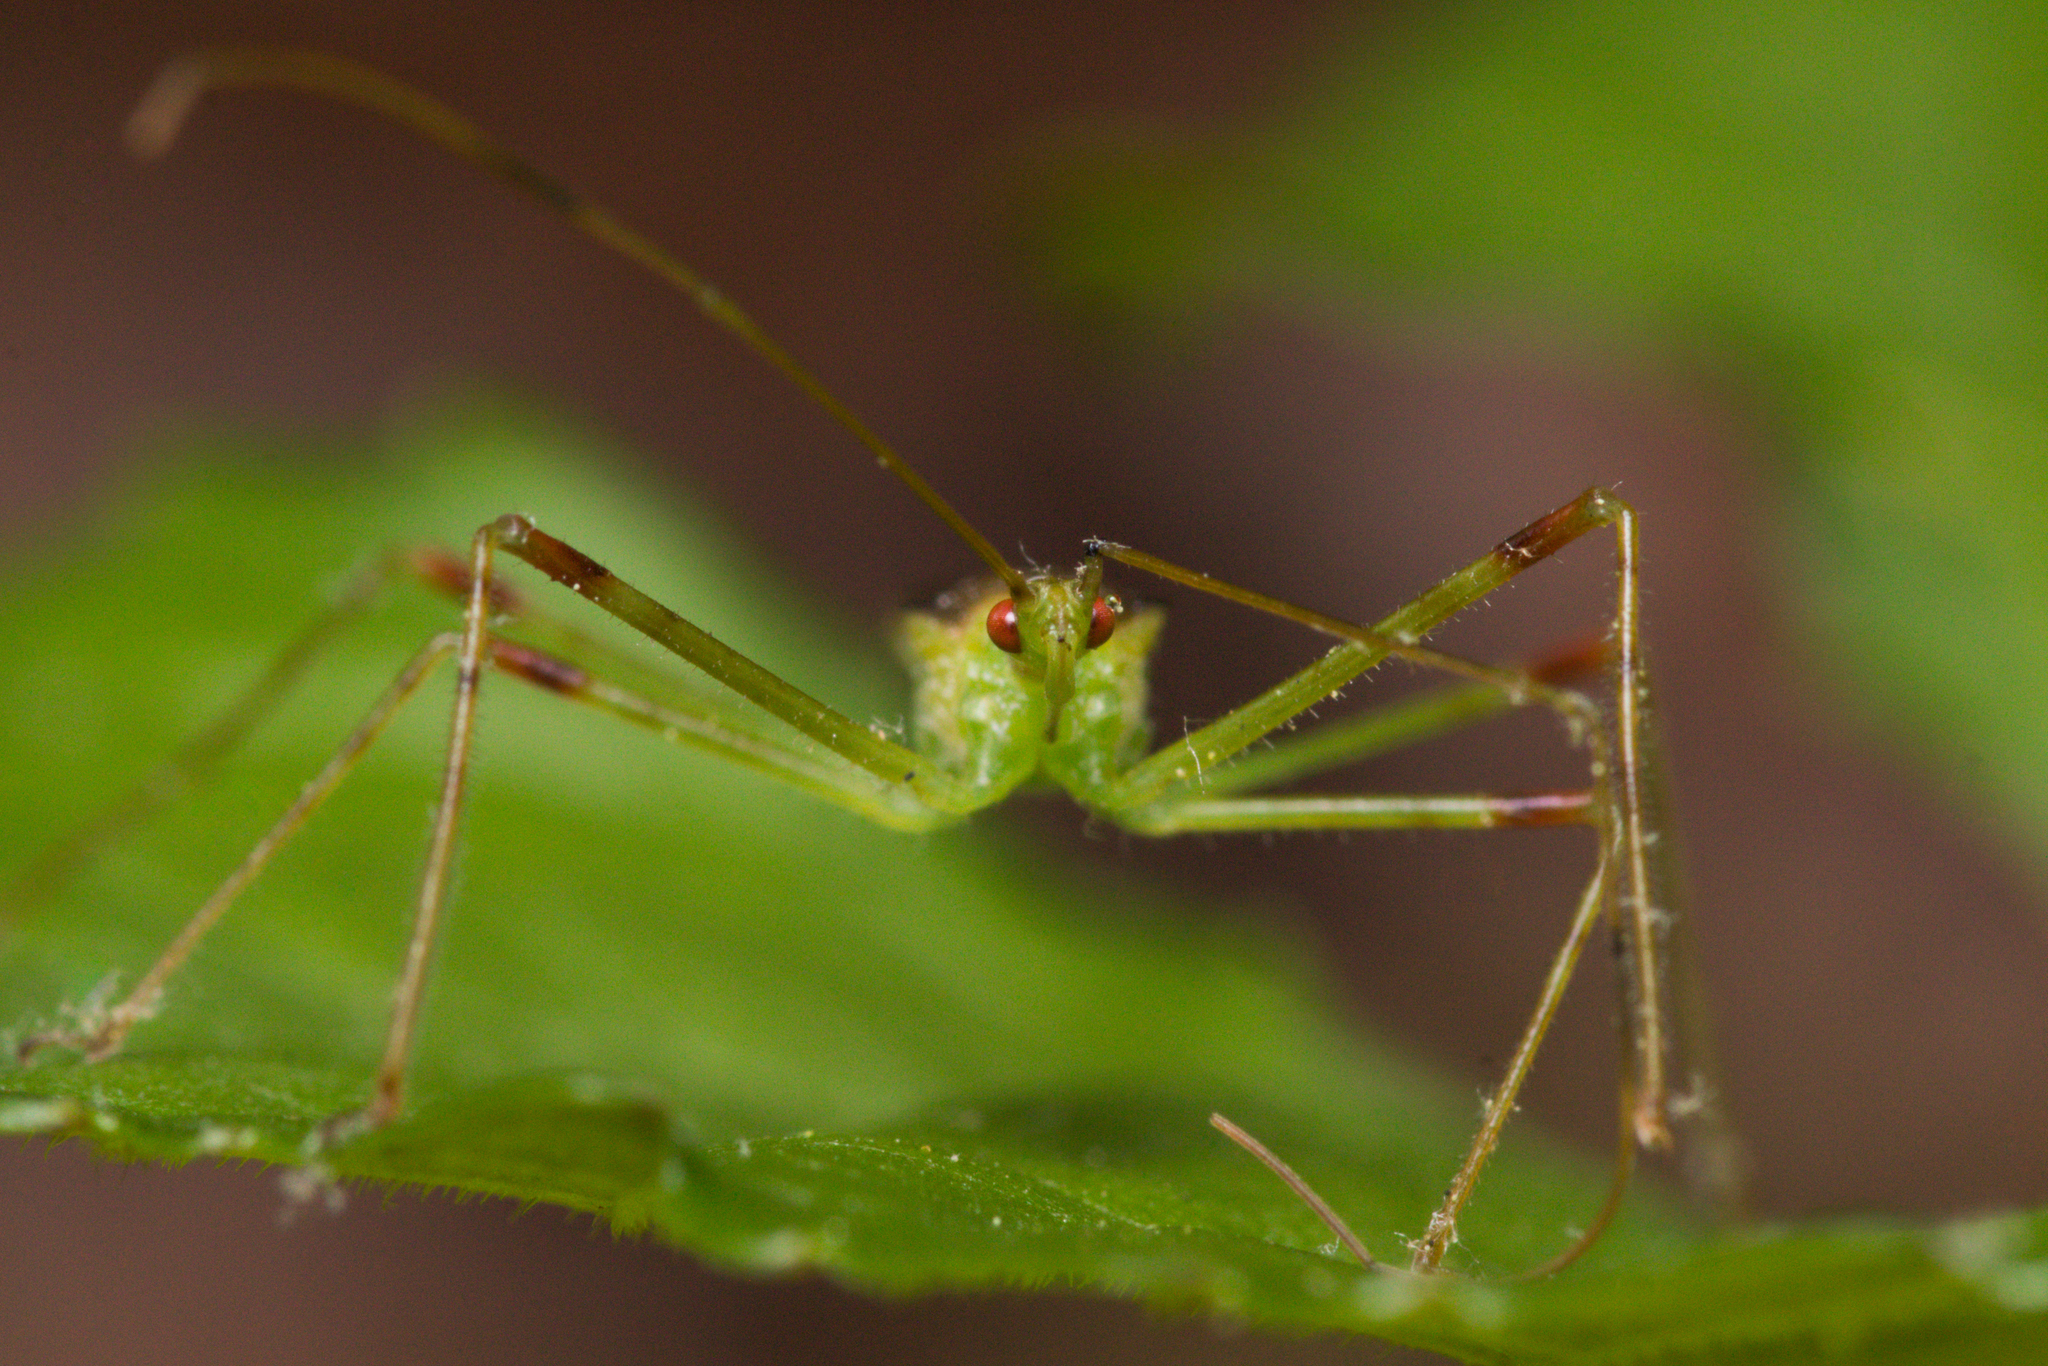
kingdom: Animalia
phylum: Arthropoda
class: Insecta
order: Hemiptera
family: Reduviidae
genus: Zelus
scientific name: Zelus luridus
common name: Pale green assassin bug
